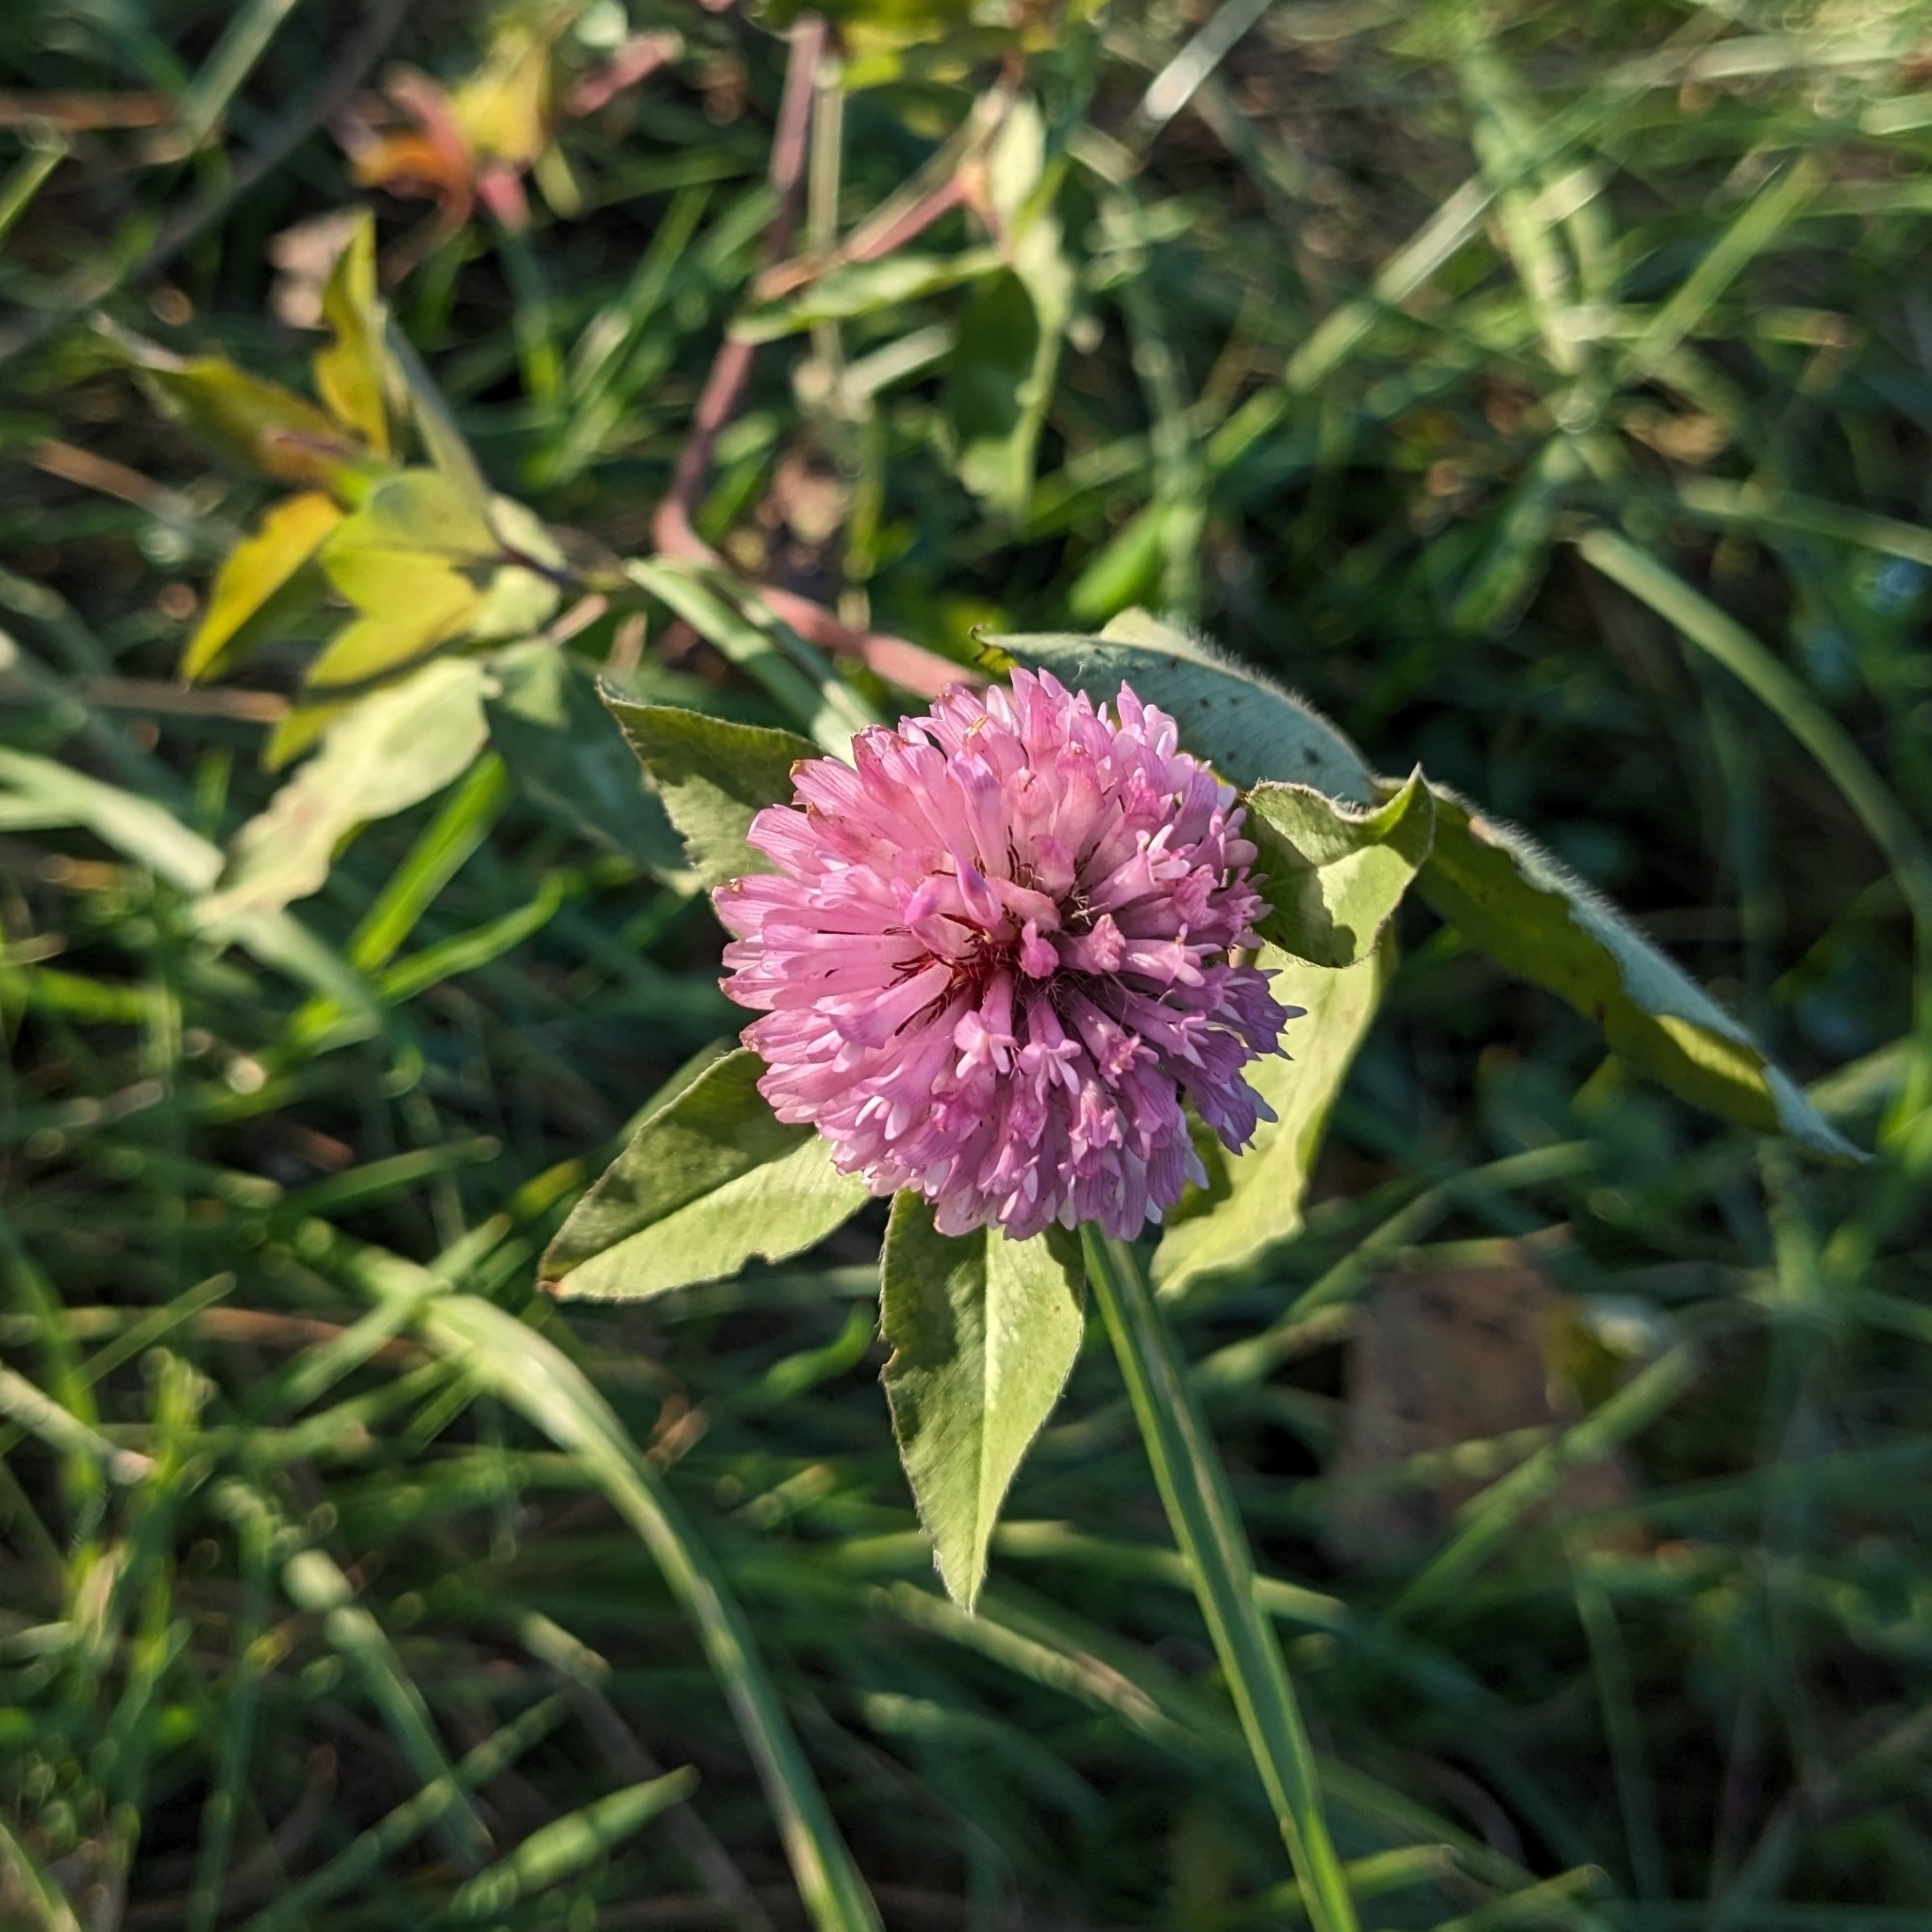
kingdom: Plantae
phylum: Tracheophyta
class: Magnoliopsida
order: Fabales
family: Fabaceae
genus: Trifolium
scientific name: Trifolium pratense
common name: Red clover
